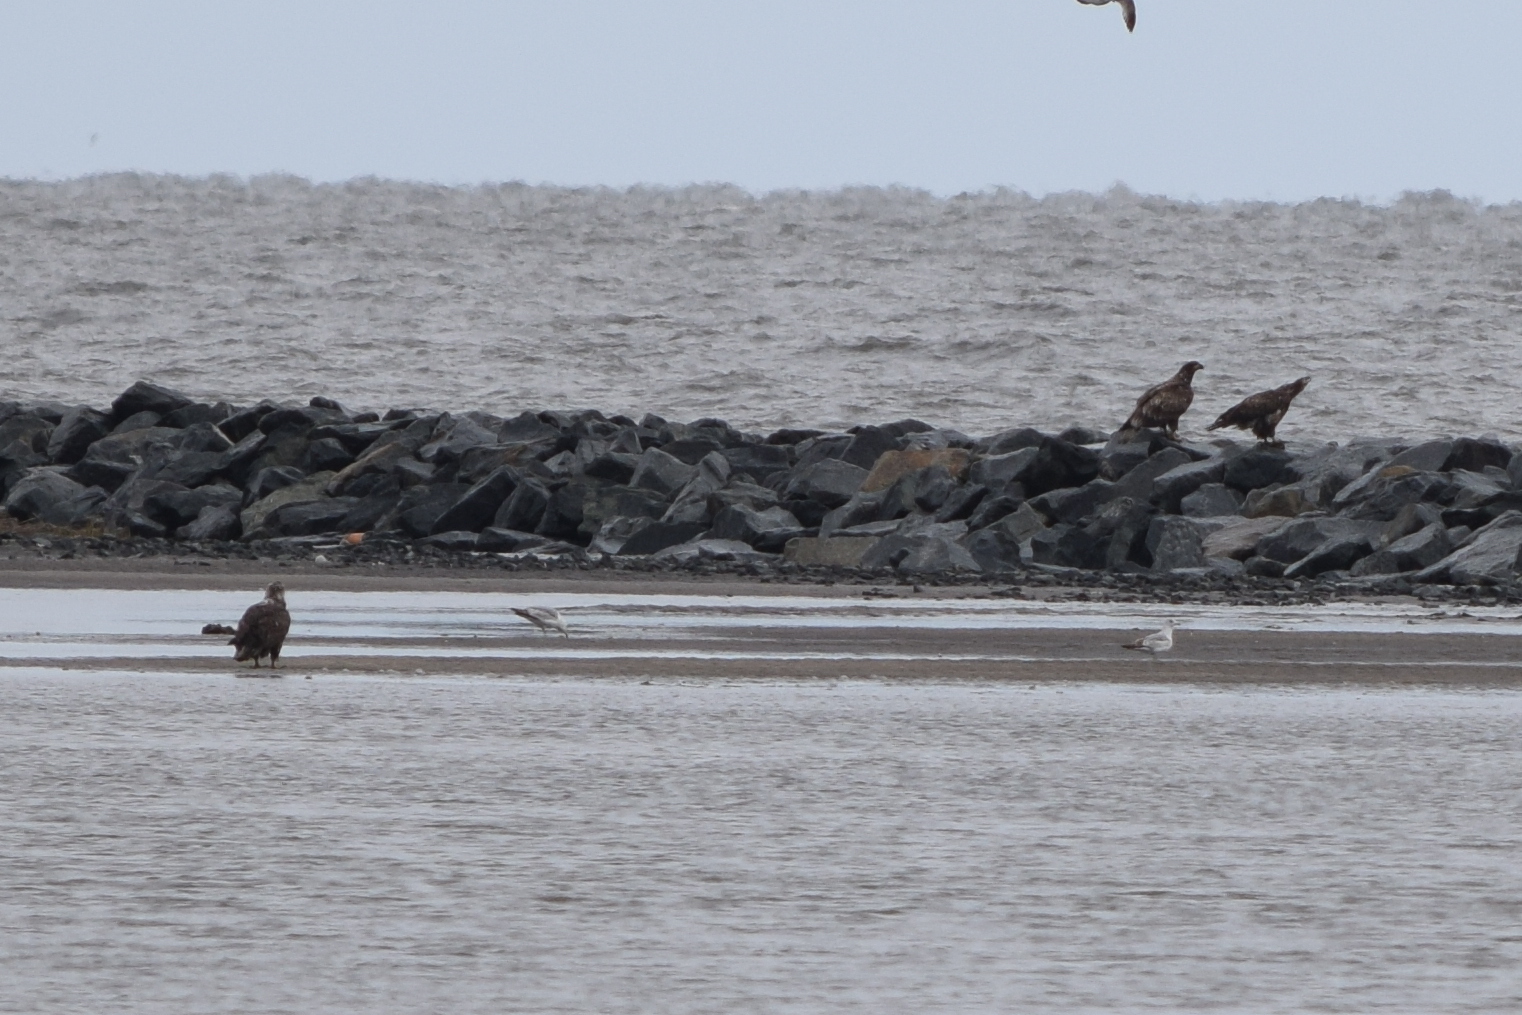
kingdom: Animalia
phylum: Chordata
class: Aves
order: Accipitriformes
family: Accipitridae
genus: Haliaeetus
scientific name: Haliaeetus leucocephalus
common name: Bald eagle
